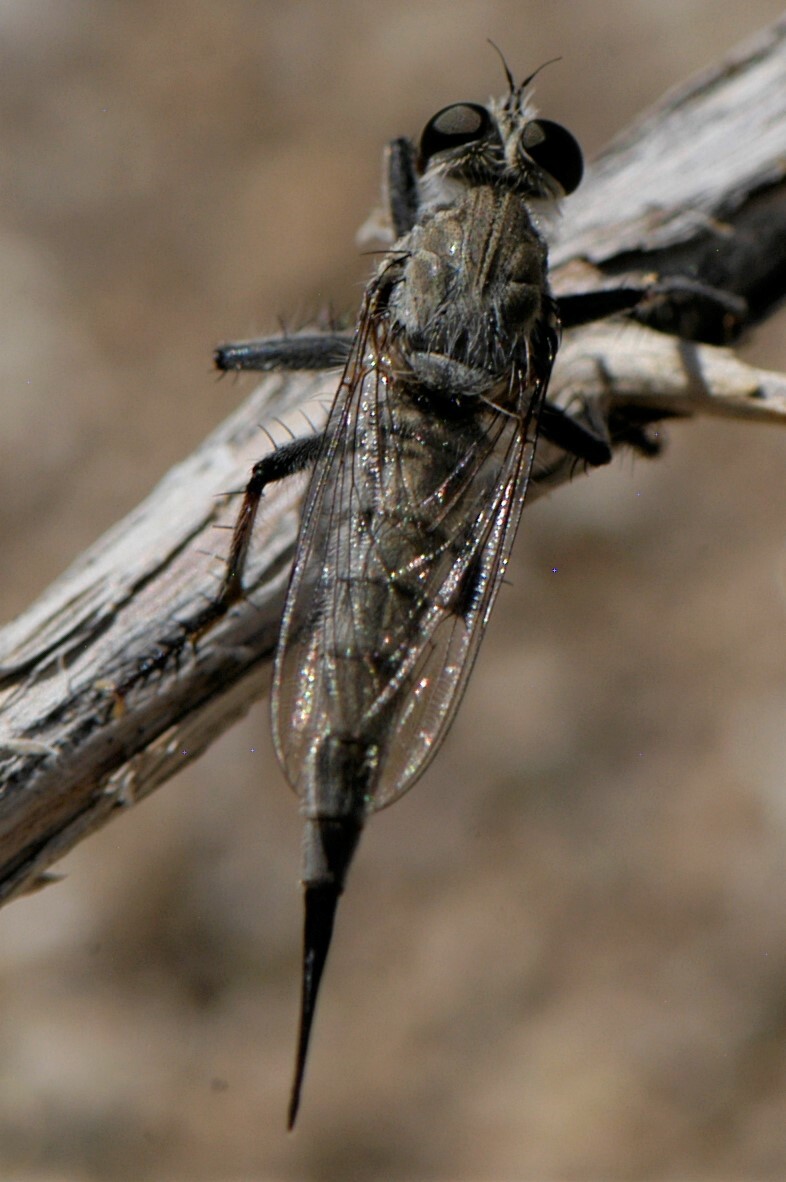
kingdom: Animalia
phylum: Arthropoda
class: Insecta
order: Diptera
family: Asilidae
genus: Efferia
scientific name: Efferia
